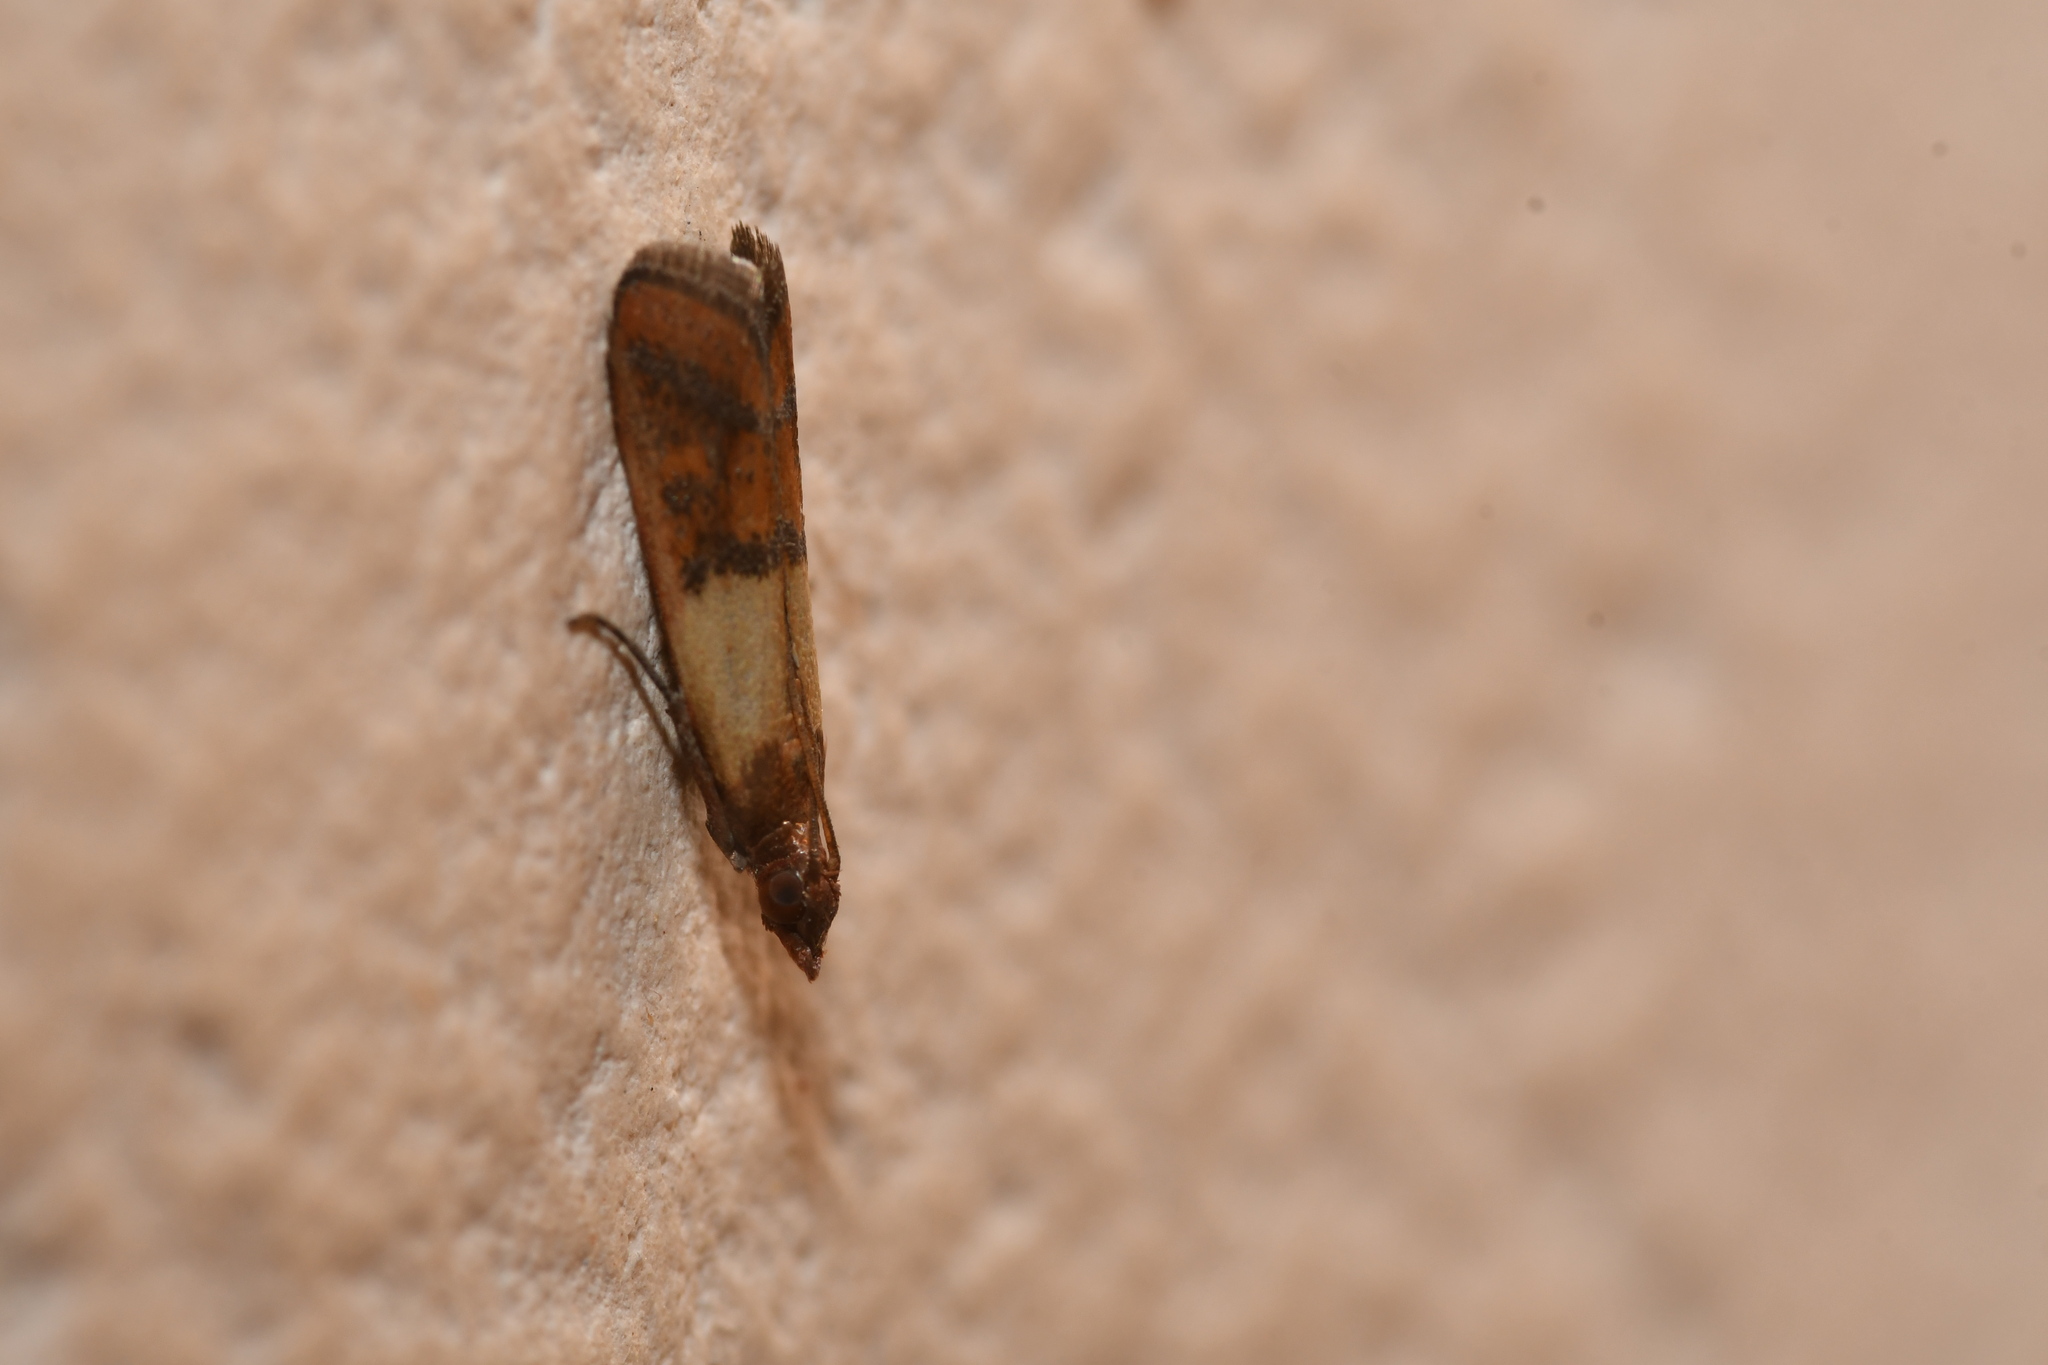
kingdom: Animalia
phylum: Arthropoda
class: Insecta
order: Lepidoptera
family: Pyralidae
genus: Plodia
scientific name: Plodia interpunctella
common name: Indian meal moth
